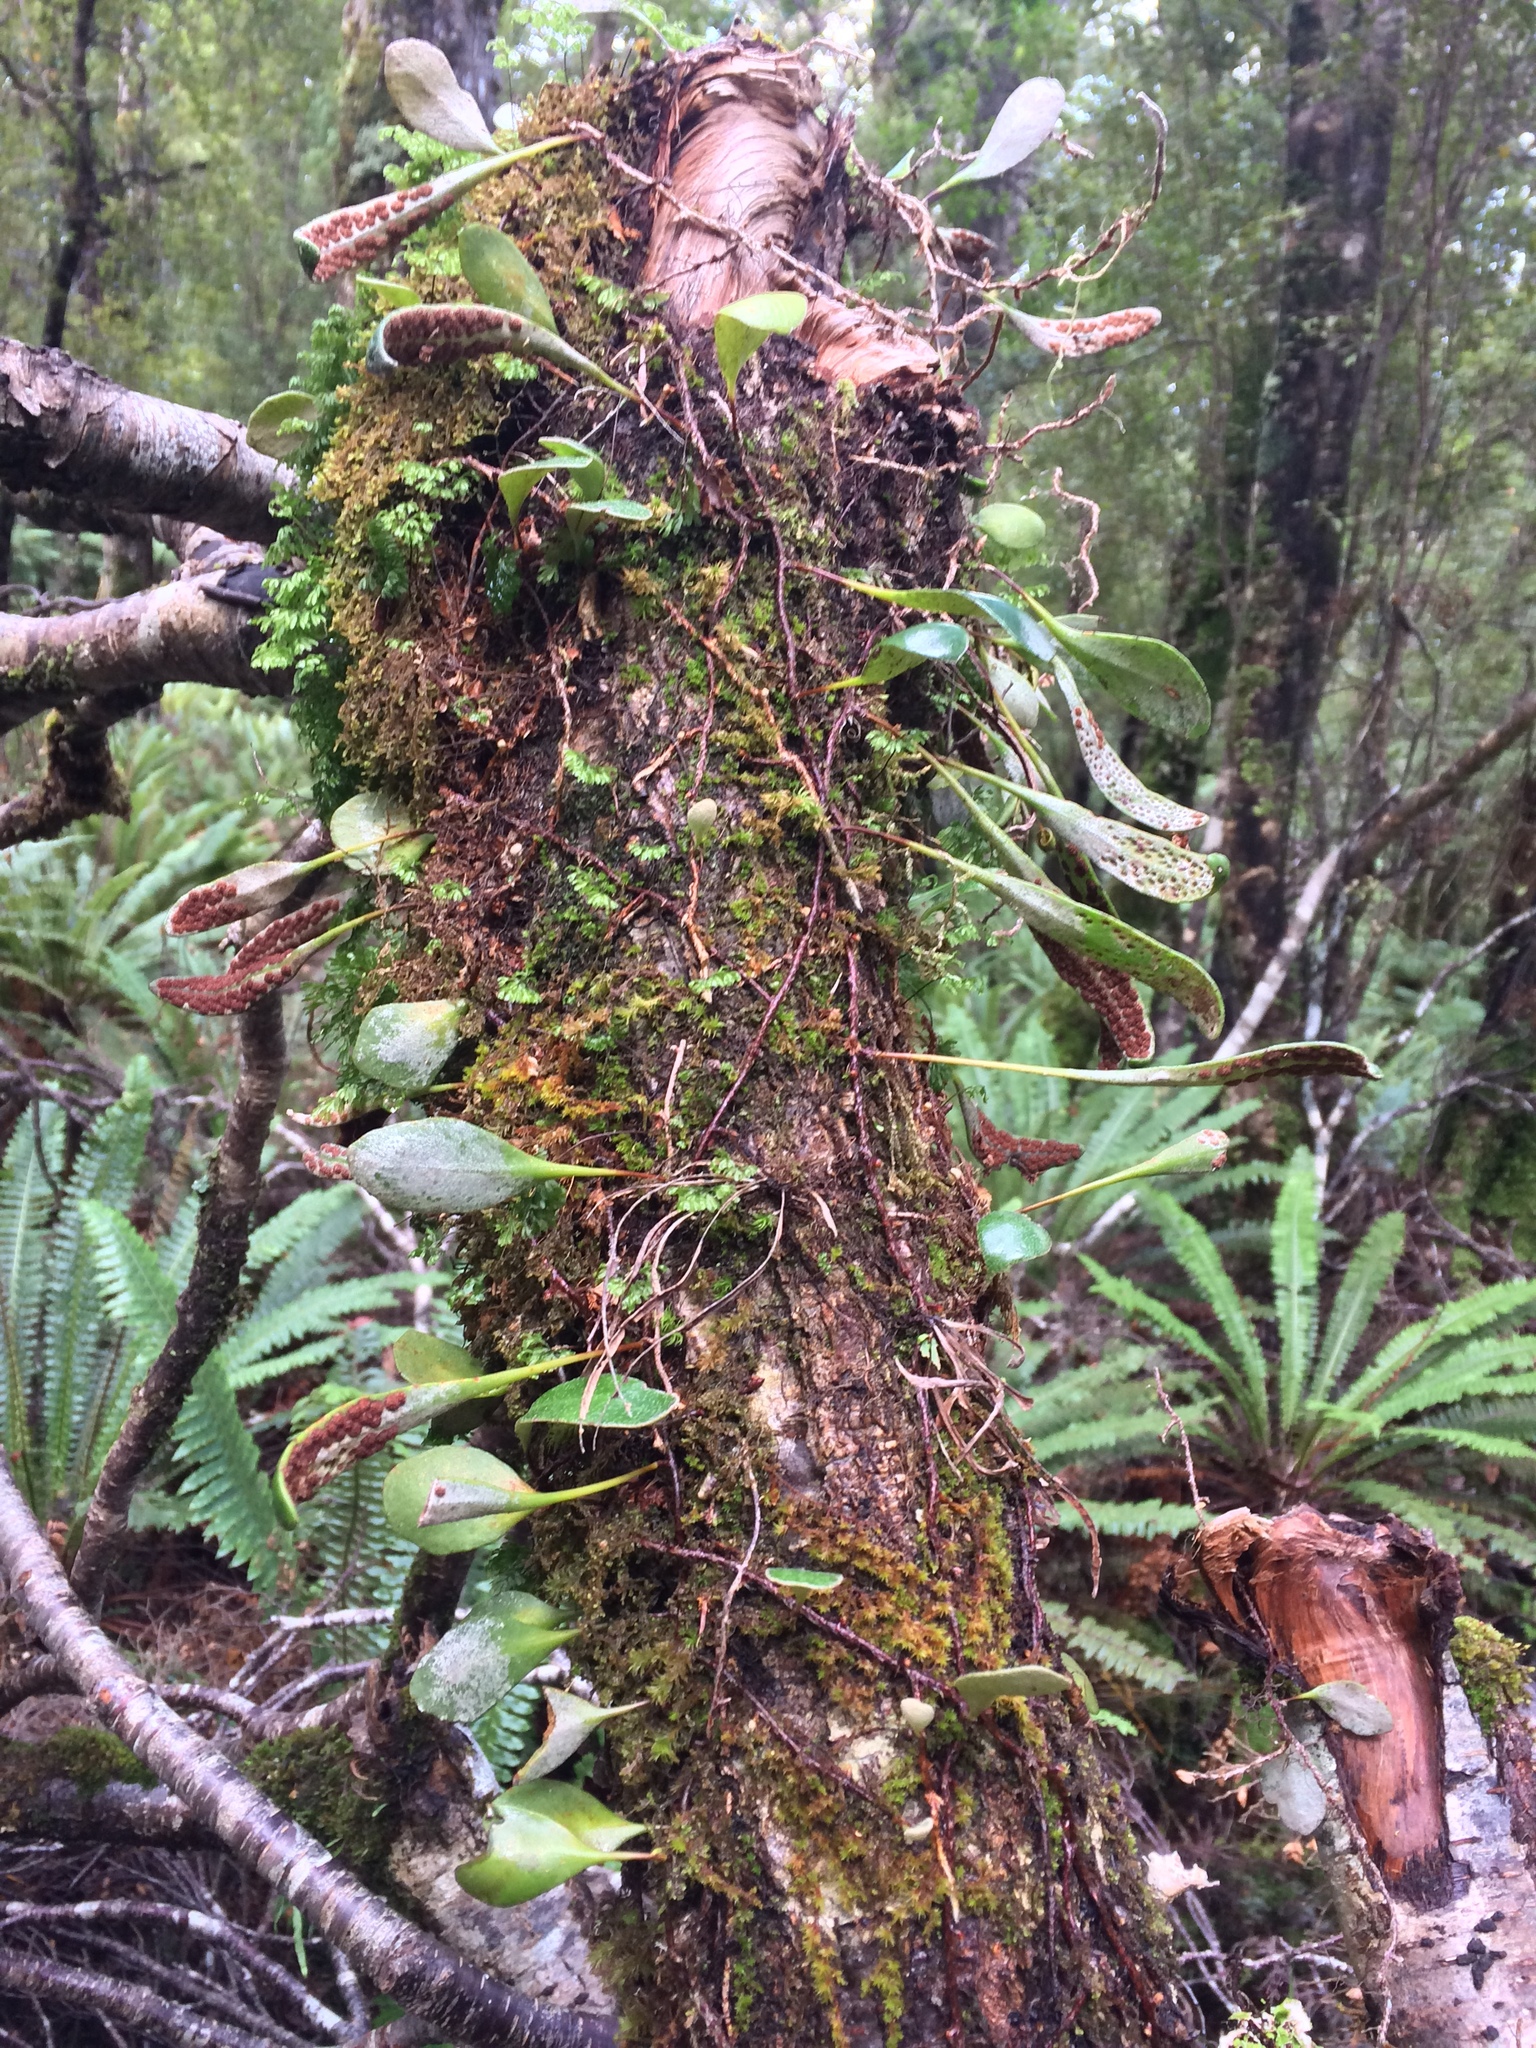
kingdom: Plantae
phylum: Tracheophyta
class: Polypodiopsida
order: Polypodiales
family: Polypodiaceae
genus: Pyrrosia
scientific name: Pyrrosia eleagnifolia
